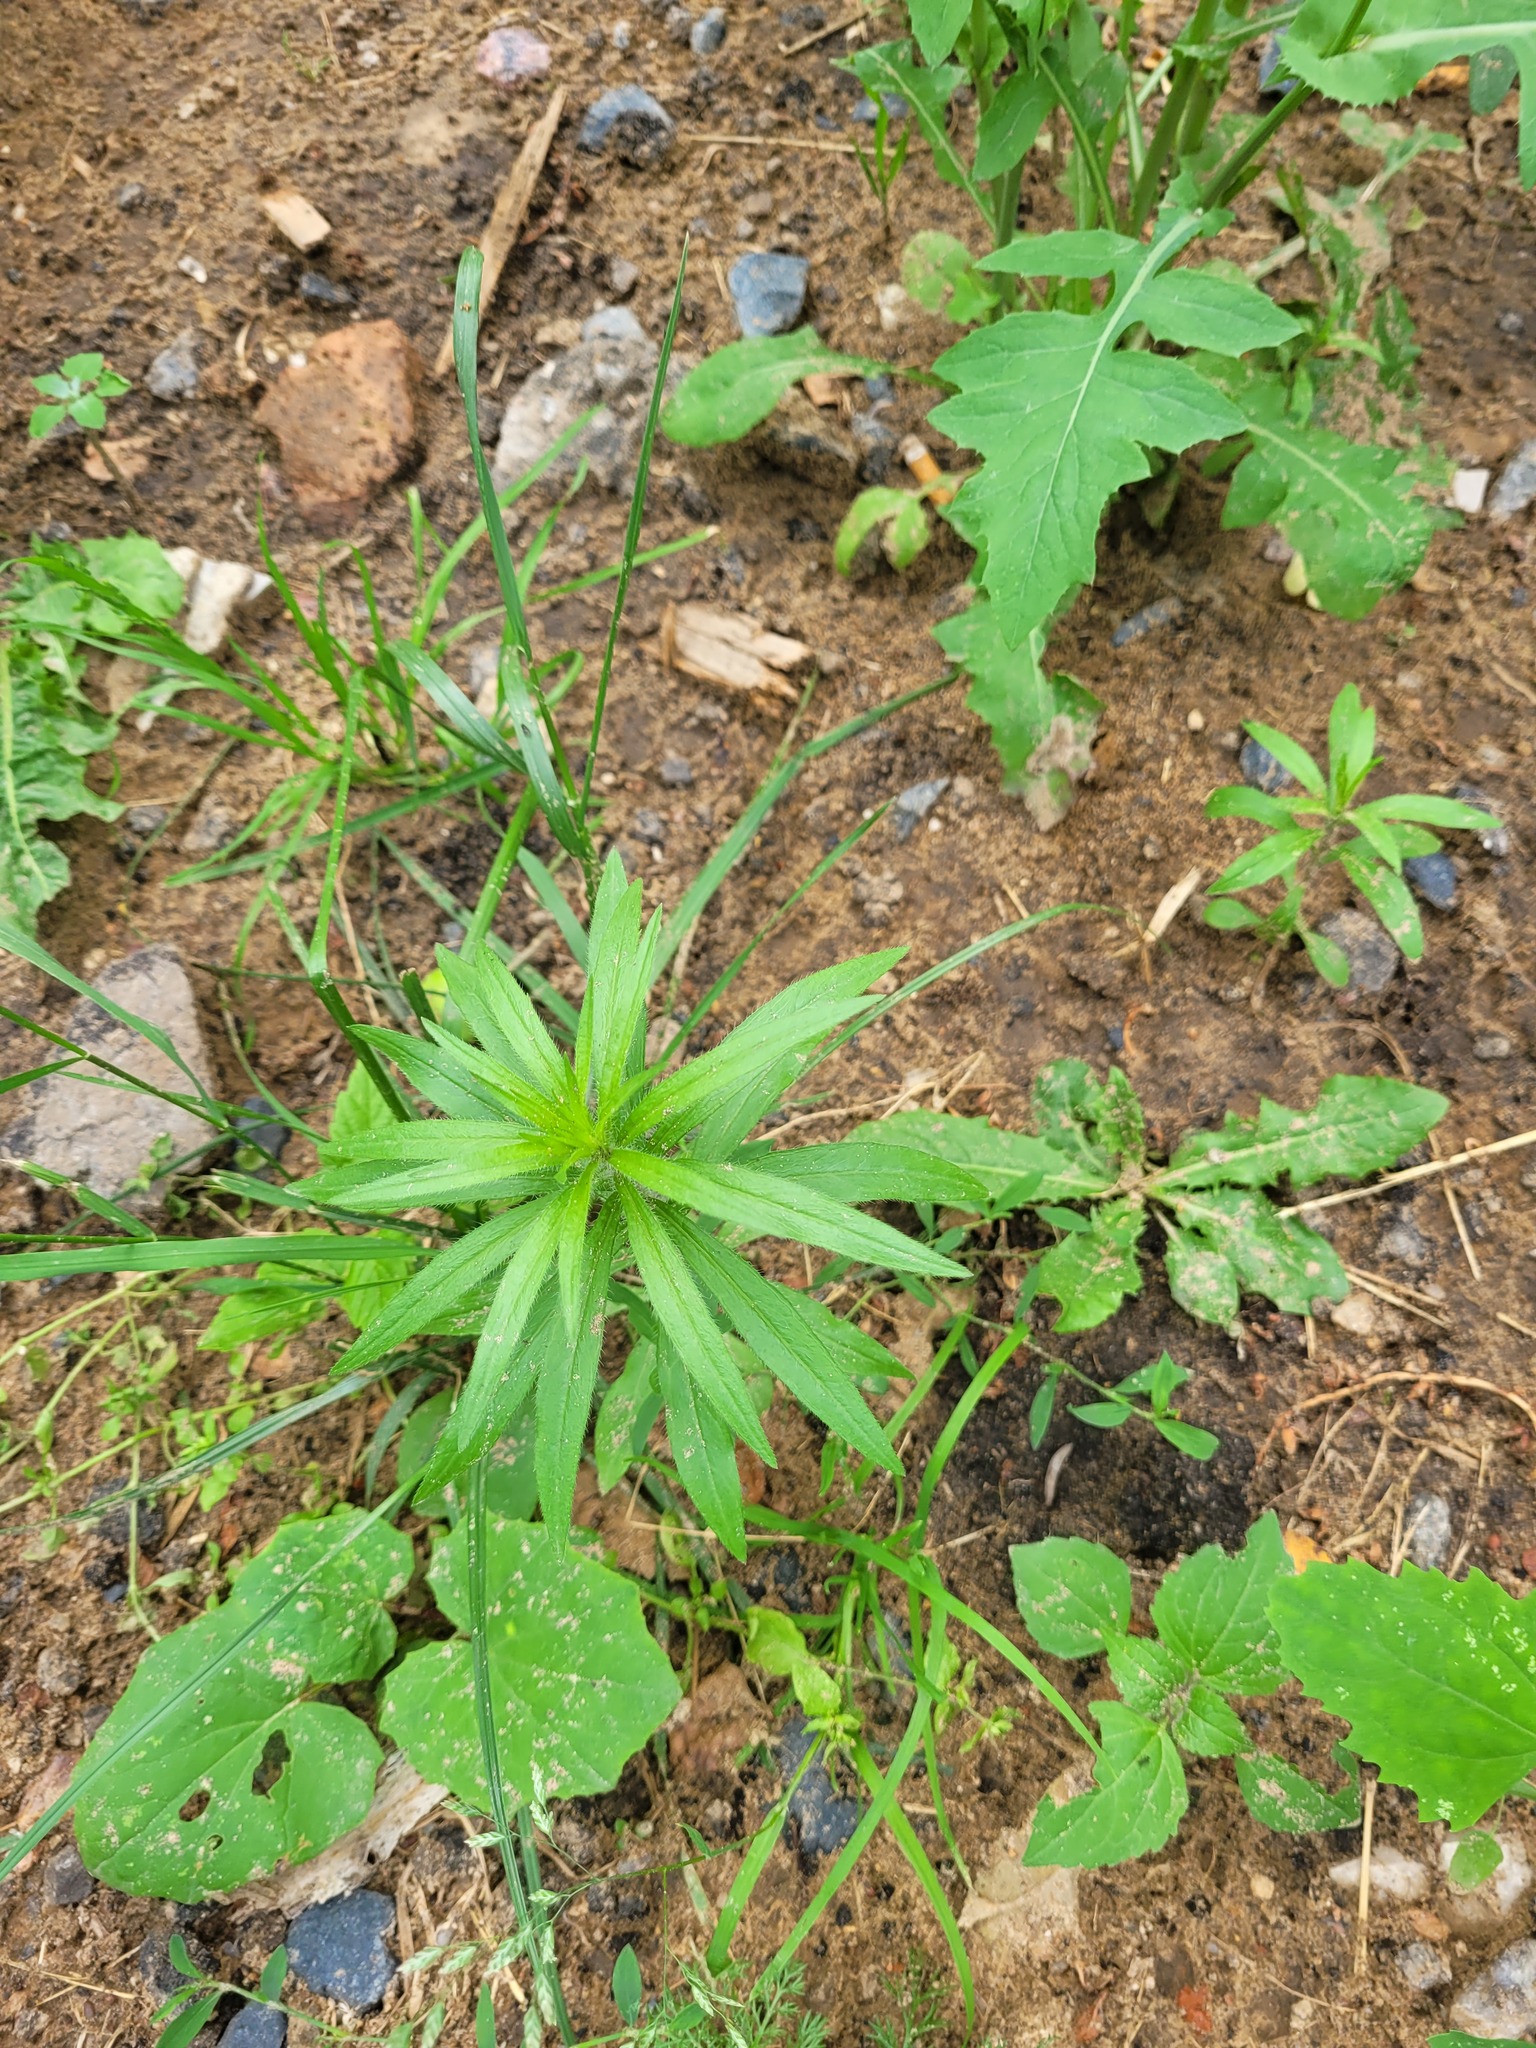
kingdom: Plantae
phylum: Tracheophyta
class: Magnoliopsida
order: Asterales
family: Asteraceae
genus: Erigeron
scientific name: Erigeron canadensis
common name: Canadian fleabane
